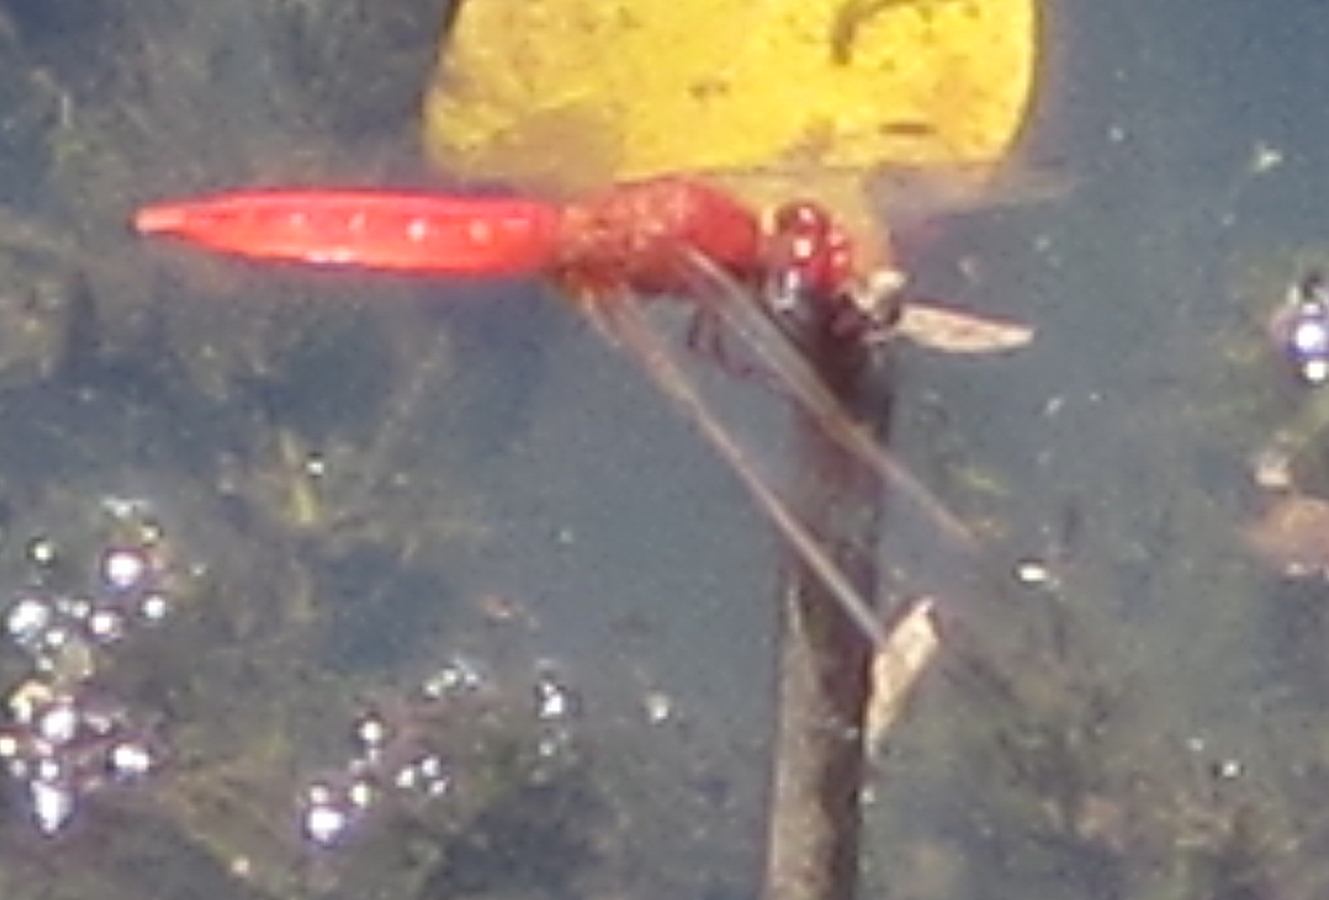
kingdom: Animalia
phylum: Arthropoda
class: Insecta
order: Odonata
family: Libellulidae
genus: Crocothemis
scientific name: Crocothemis erythraea
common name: Scarlet dragonfly
